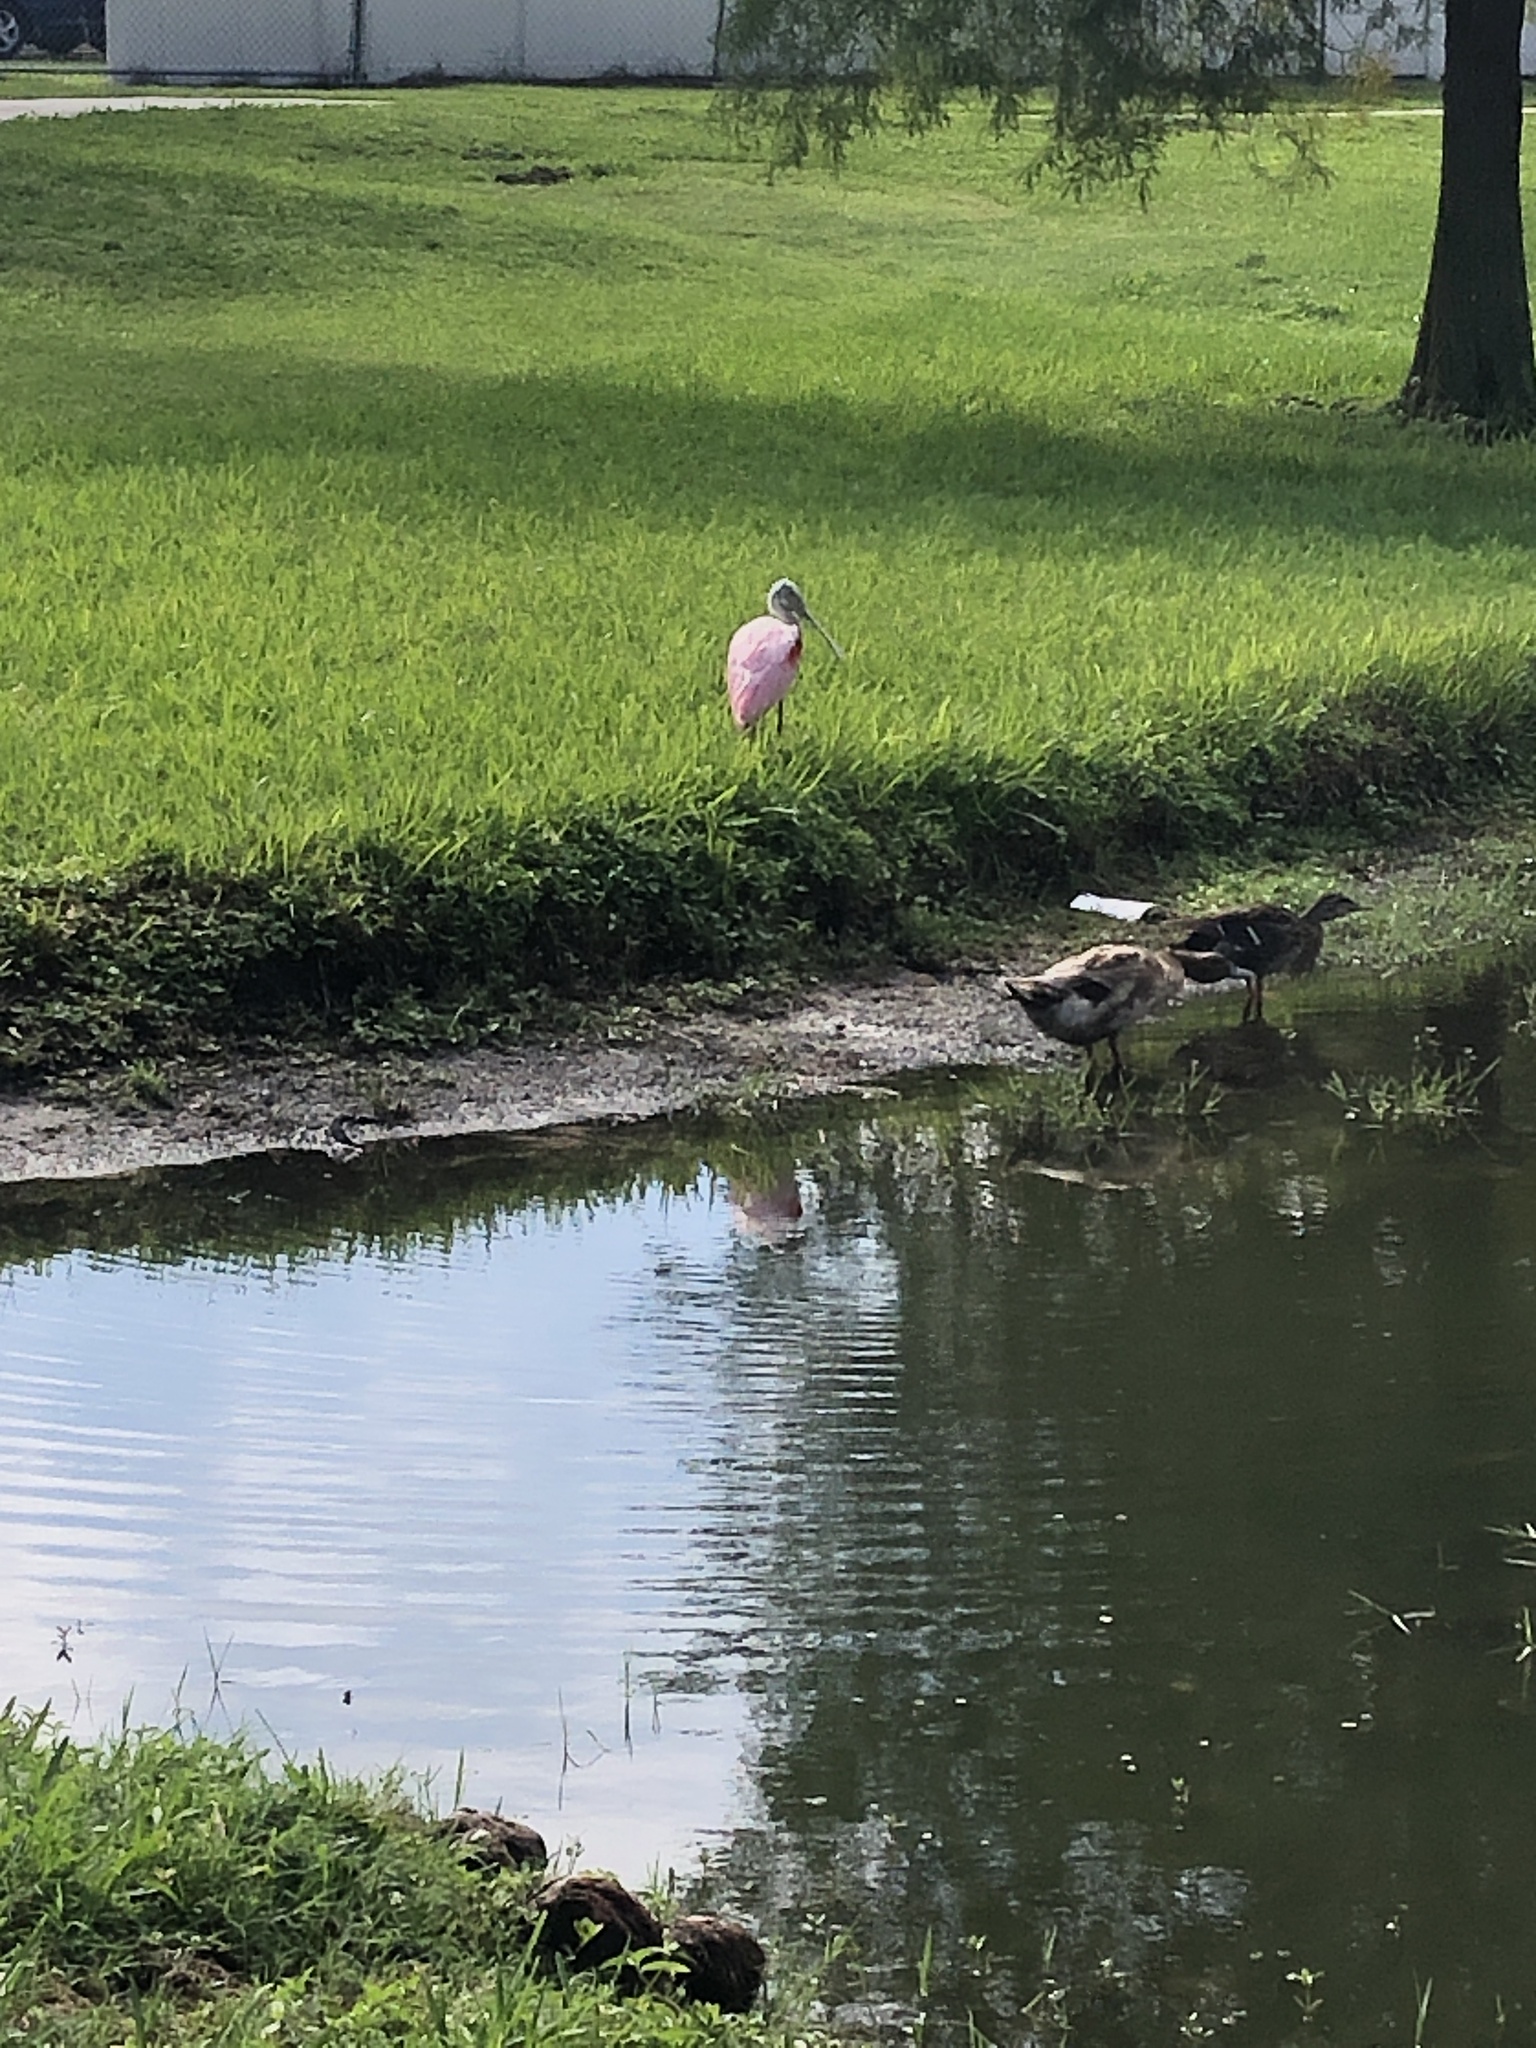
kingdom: Animalia
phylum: Chordata
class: Aves
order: Pelecaniformes
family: Threskiornithidae
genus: Platalea
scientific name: Platalea ajaja
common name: Roseate spoonbill
